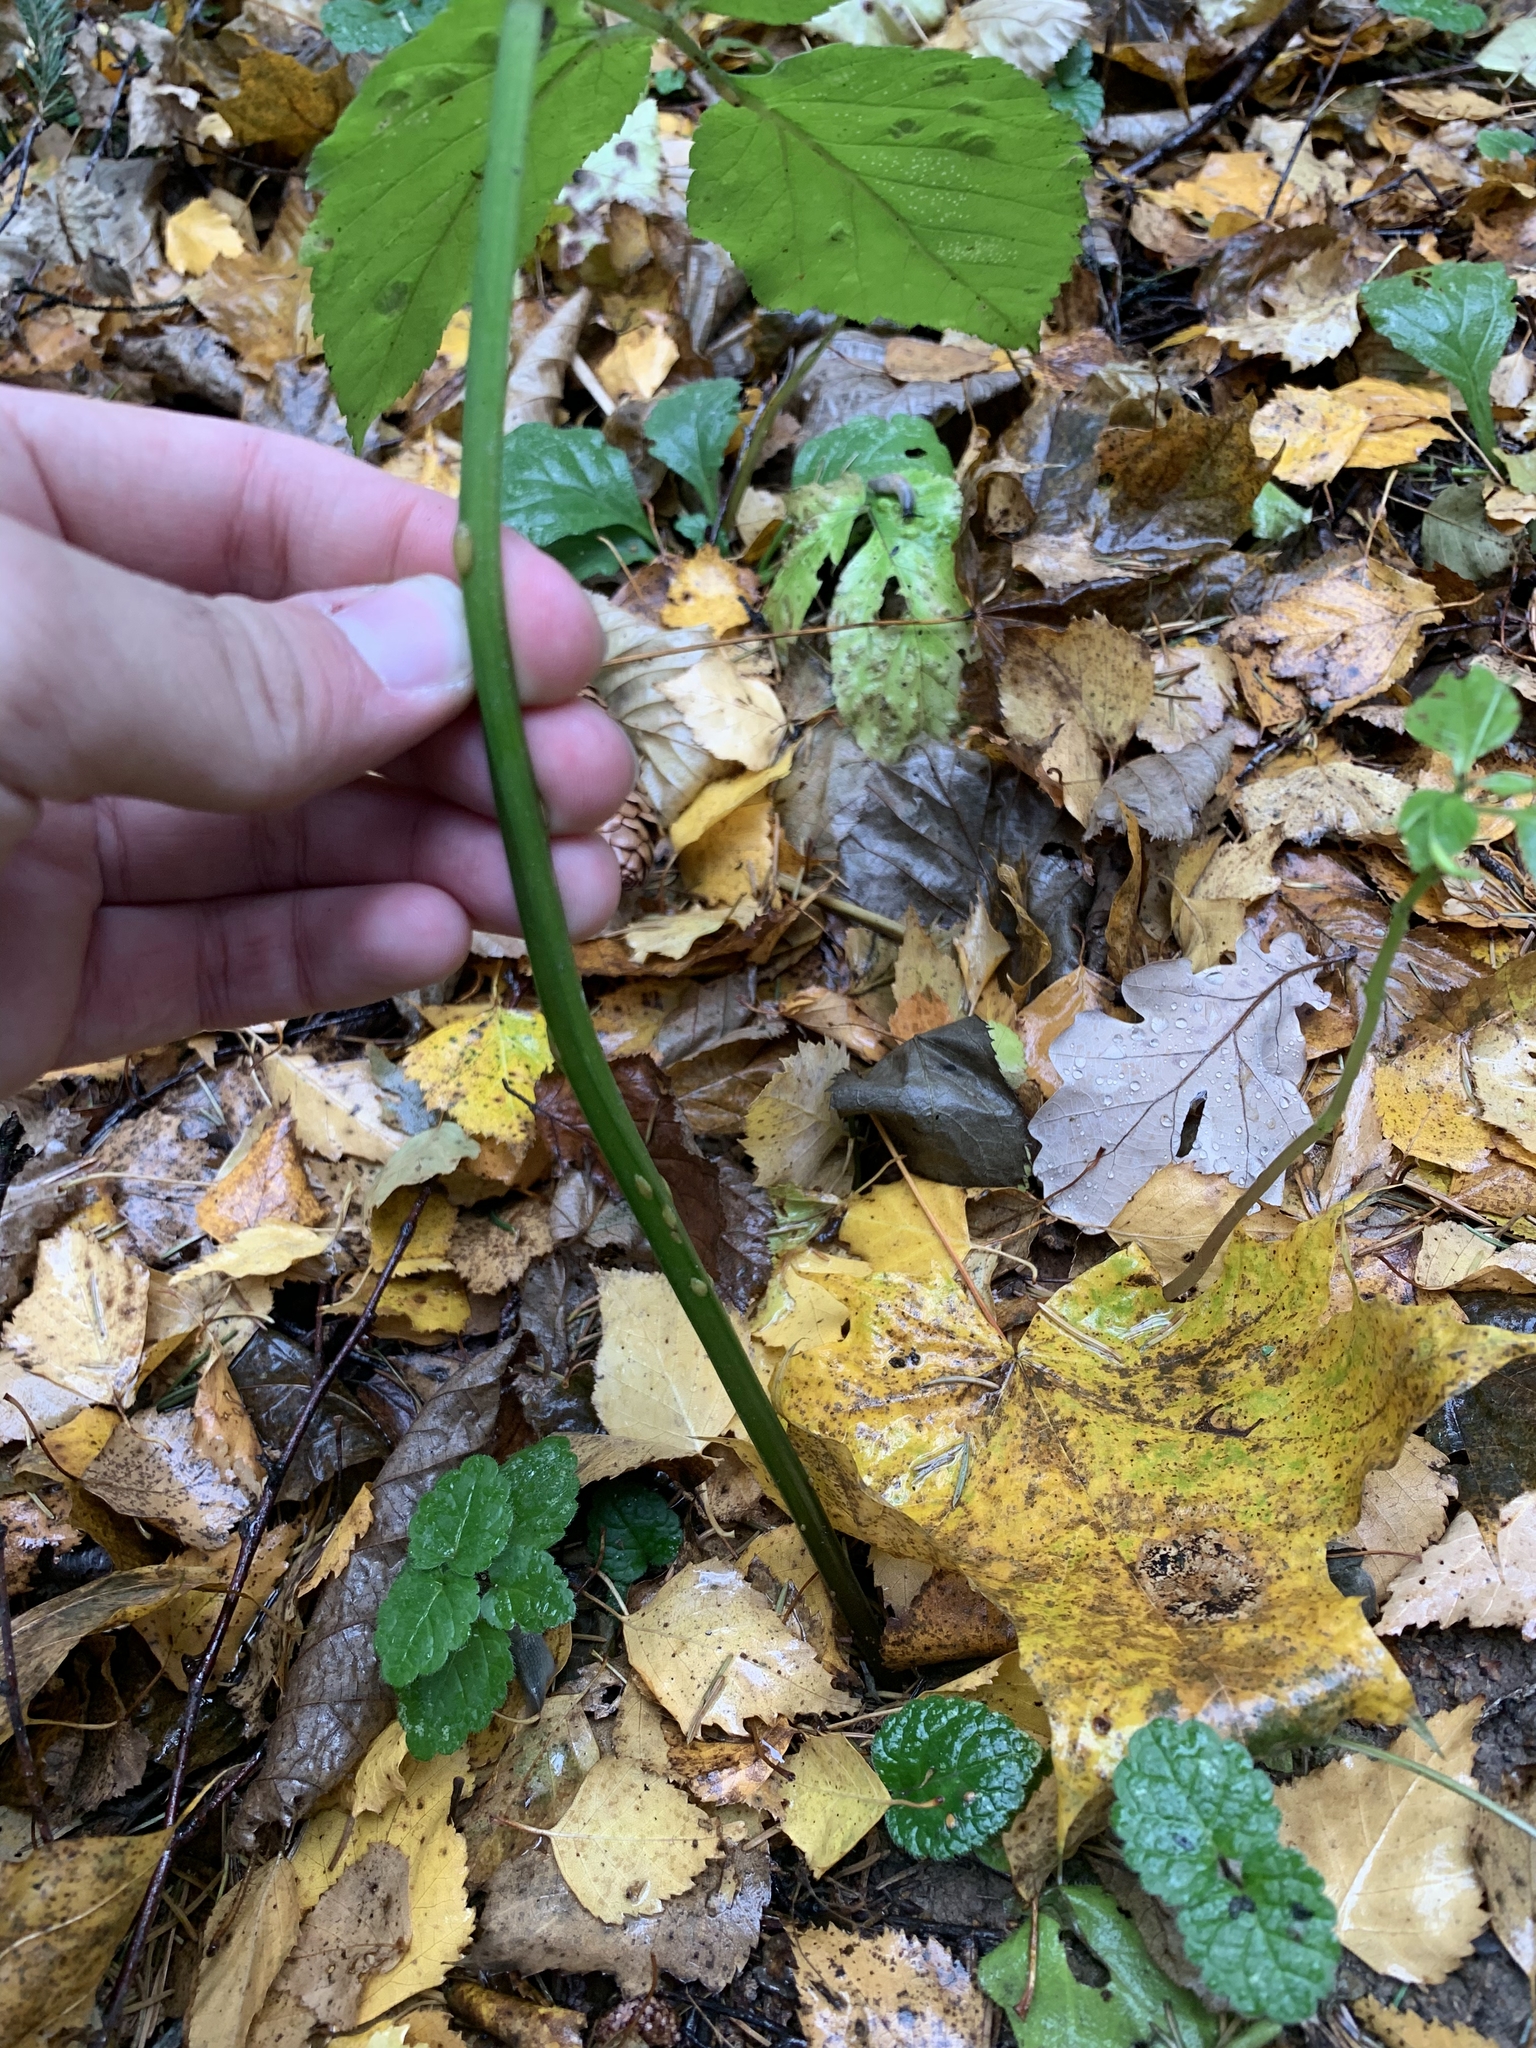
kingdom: Plantae
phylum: Tracheophyta
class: Magnoliopsida
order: Apiales
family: Apiaceae
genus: Aegopodium
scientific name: Aegopodium podagraria
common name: Ground-elder
